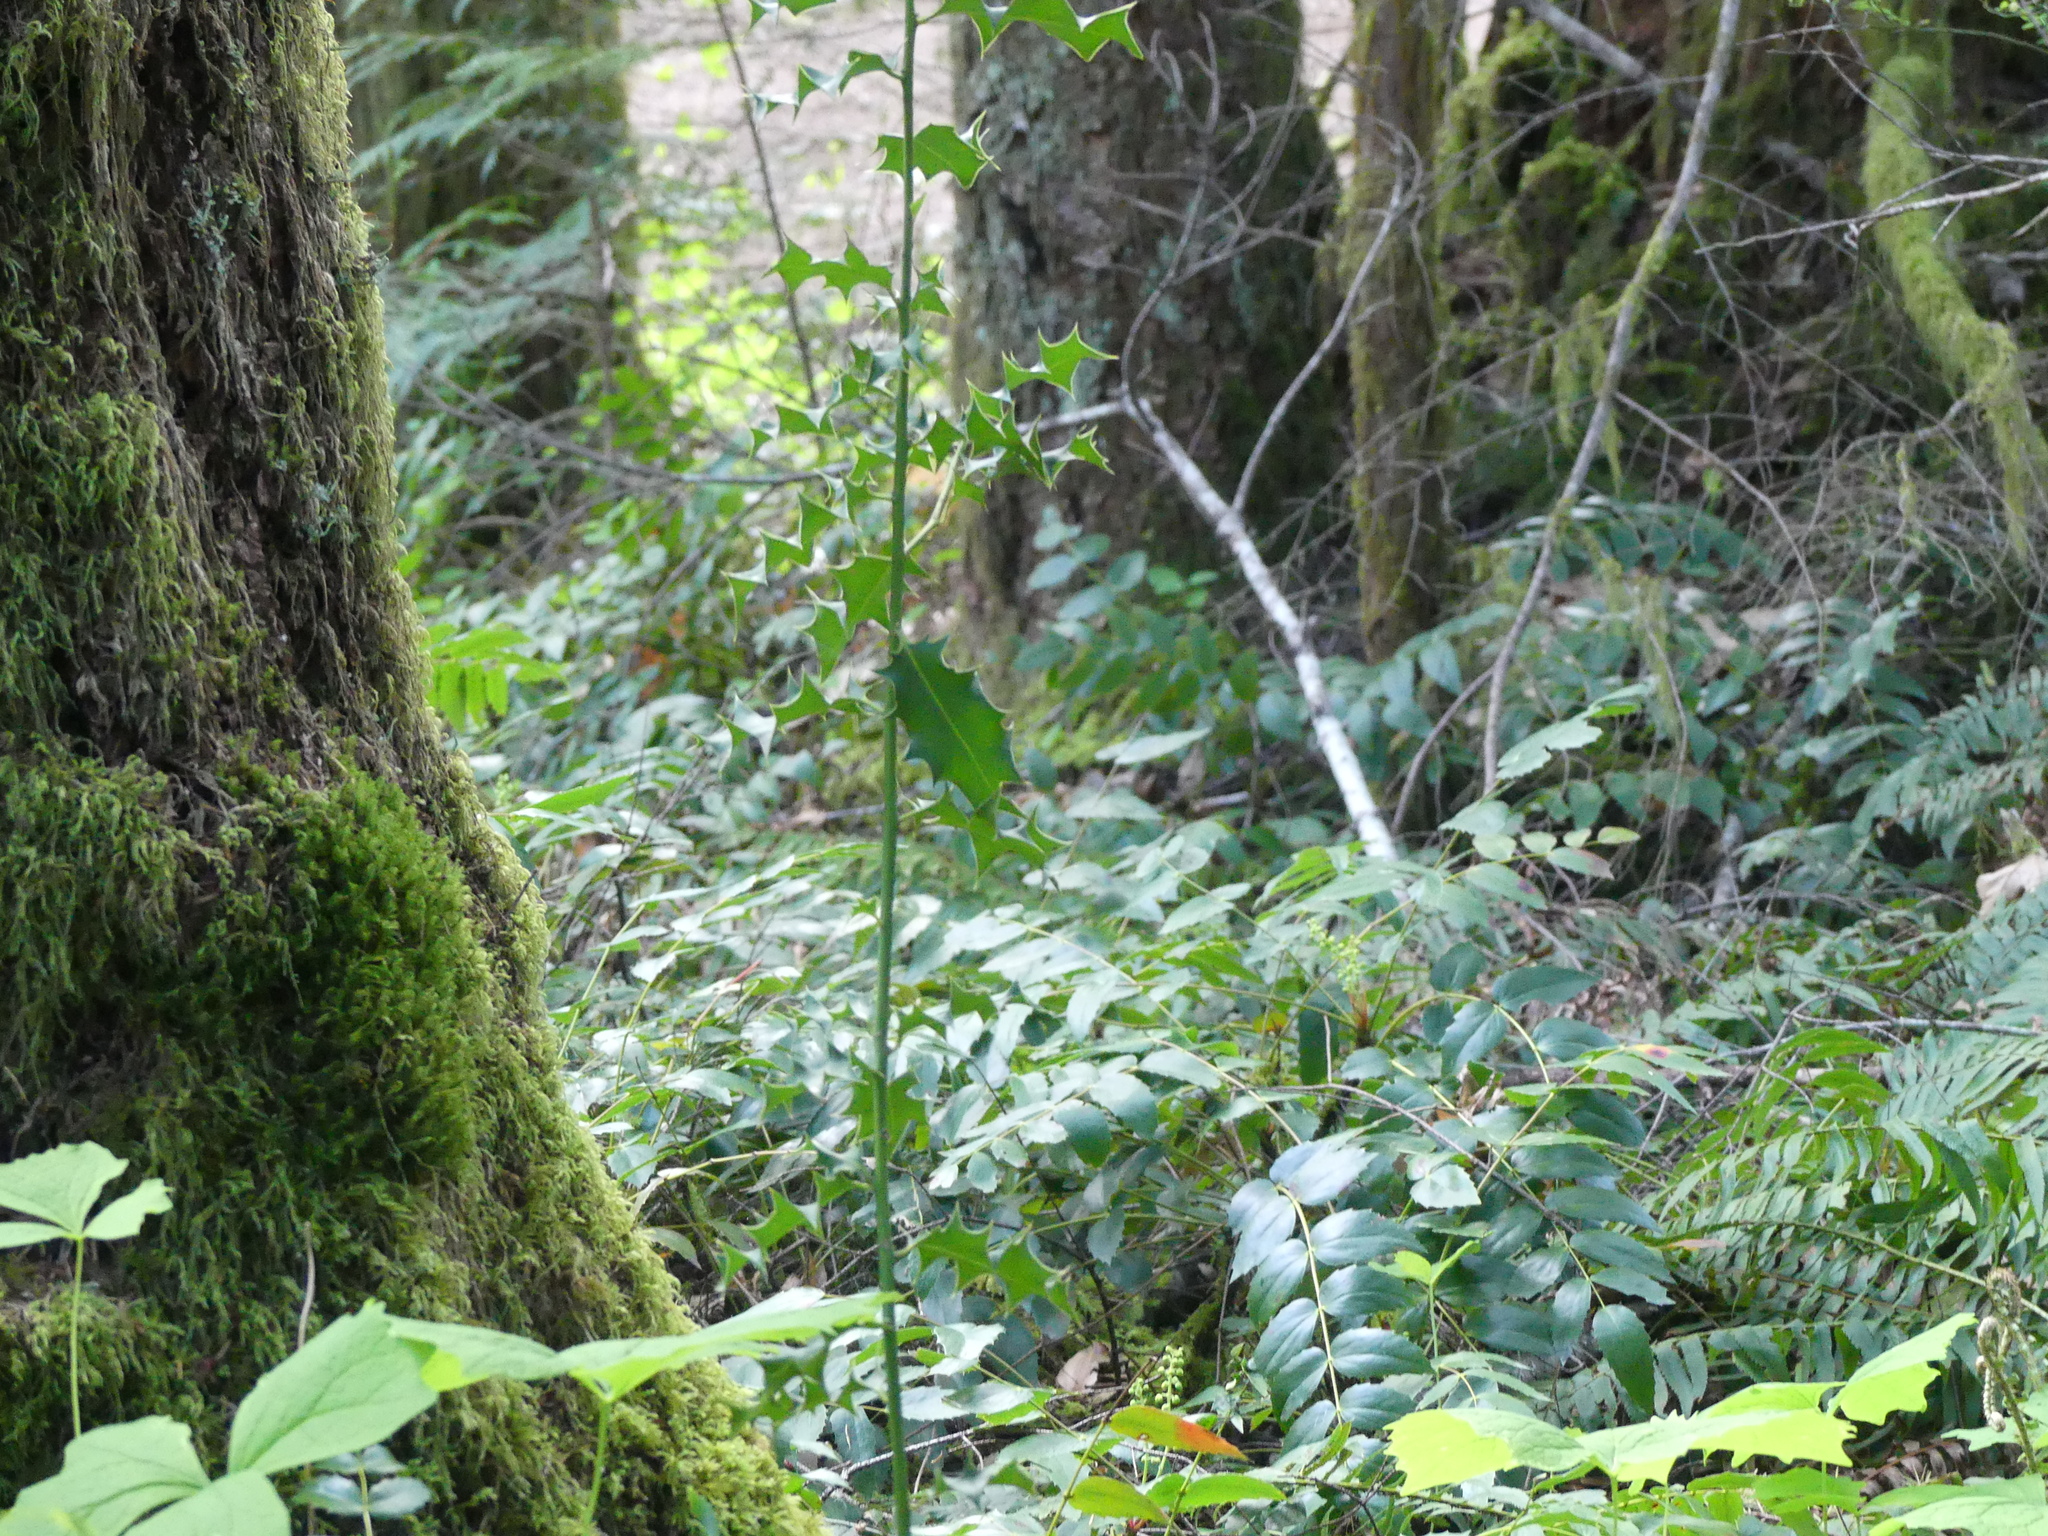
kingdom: Plantae
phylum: Tracheophyta
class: Magnoliopsida
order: Aquifoliales
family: Aquifoliaceae
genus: Ilex
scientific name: Ilex aquifolium
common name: English holly
